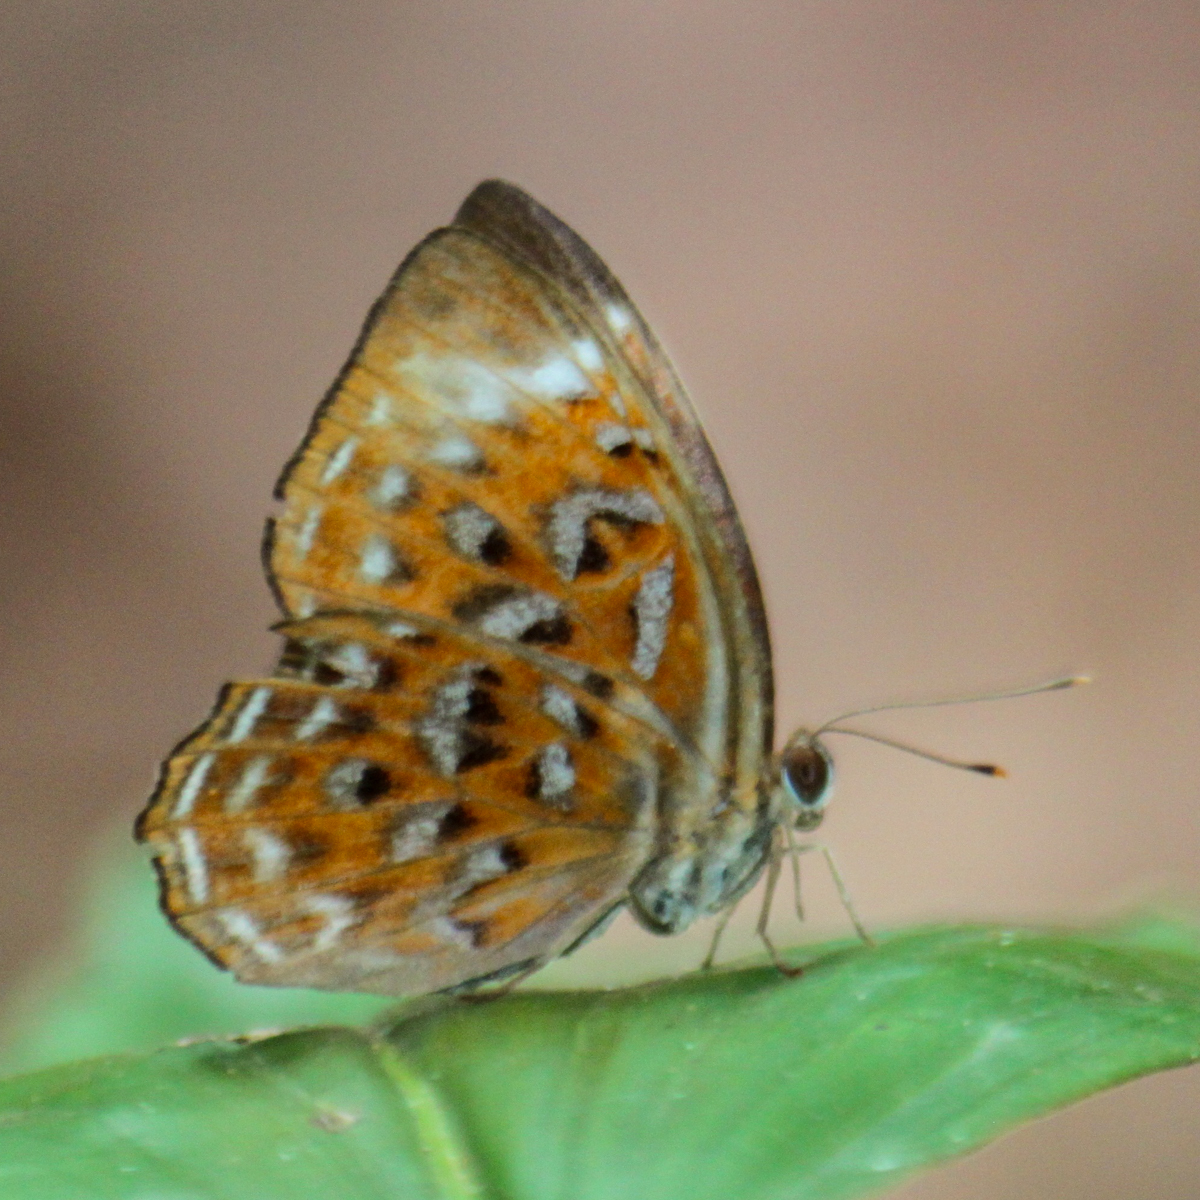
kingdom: Animalia
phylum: Arthropoda
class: Insecta
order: Lepidoptera
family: Erebidae
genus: Dysschema
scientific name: Dysschema
